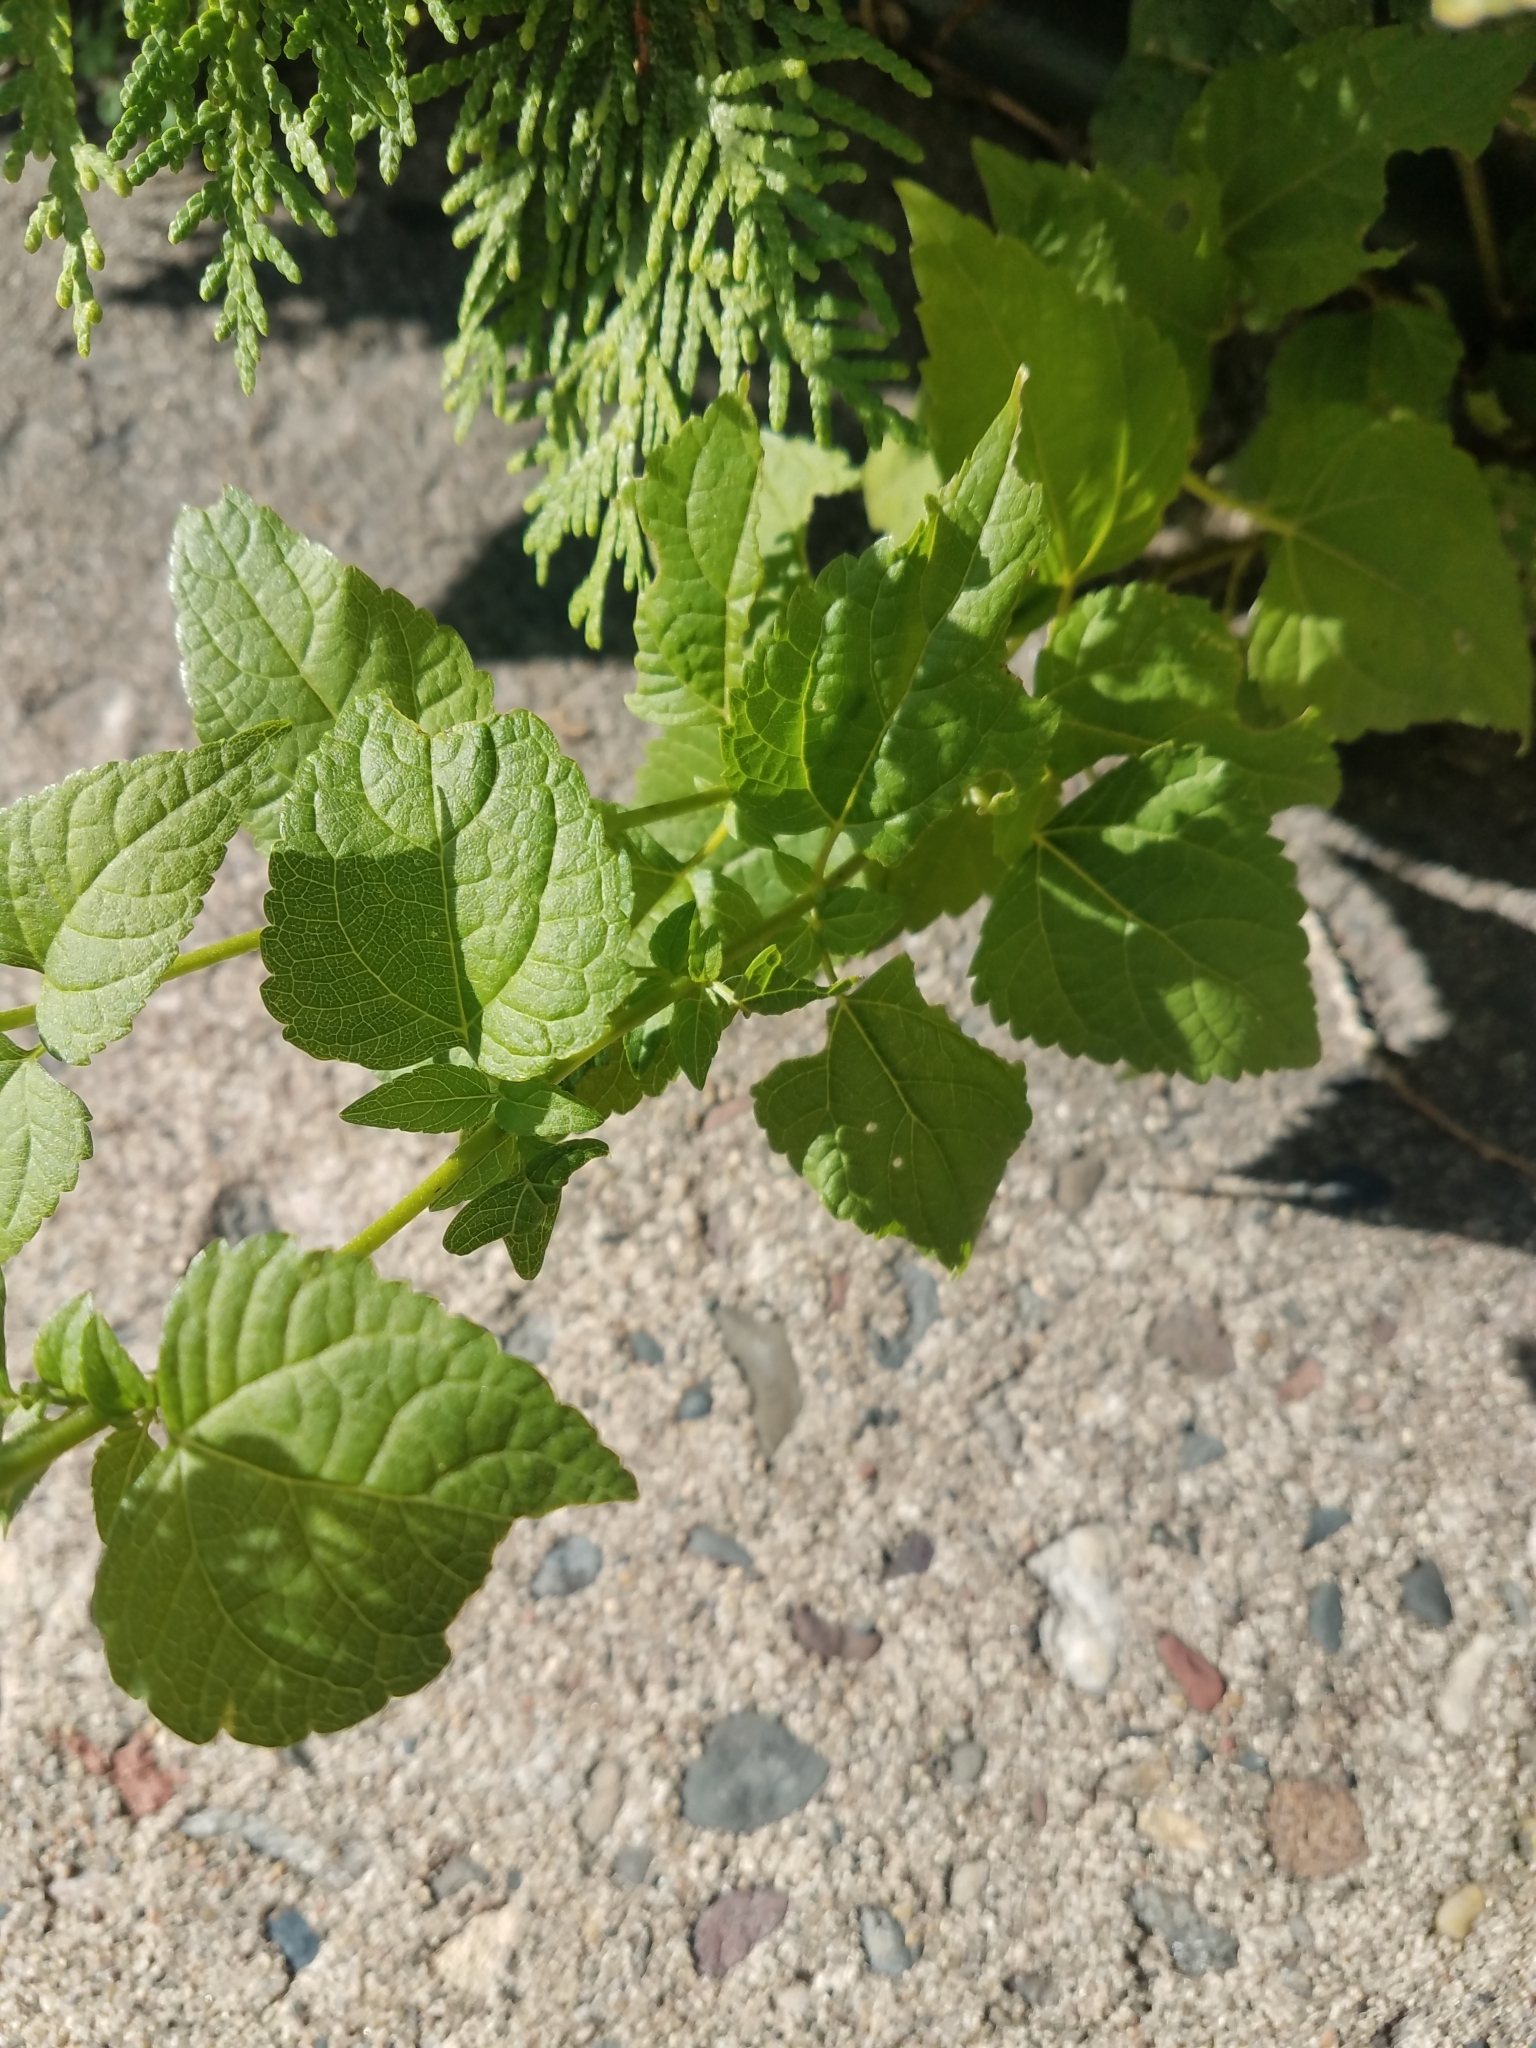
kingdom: Plantae
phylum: Tracheophyta
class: Magnoliopsida
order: Asterales
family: Asteraceae
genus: Ageratina
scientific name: Ageratina altissima
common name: White snakeroot
